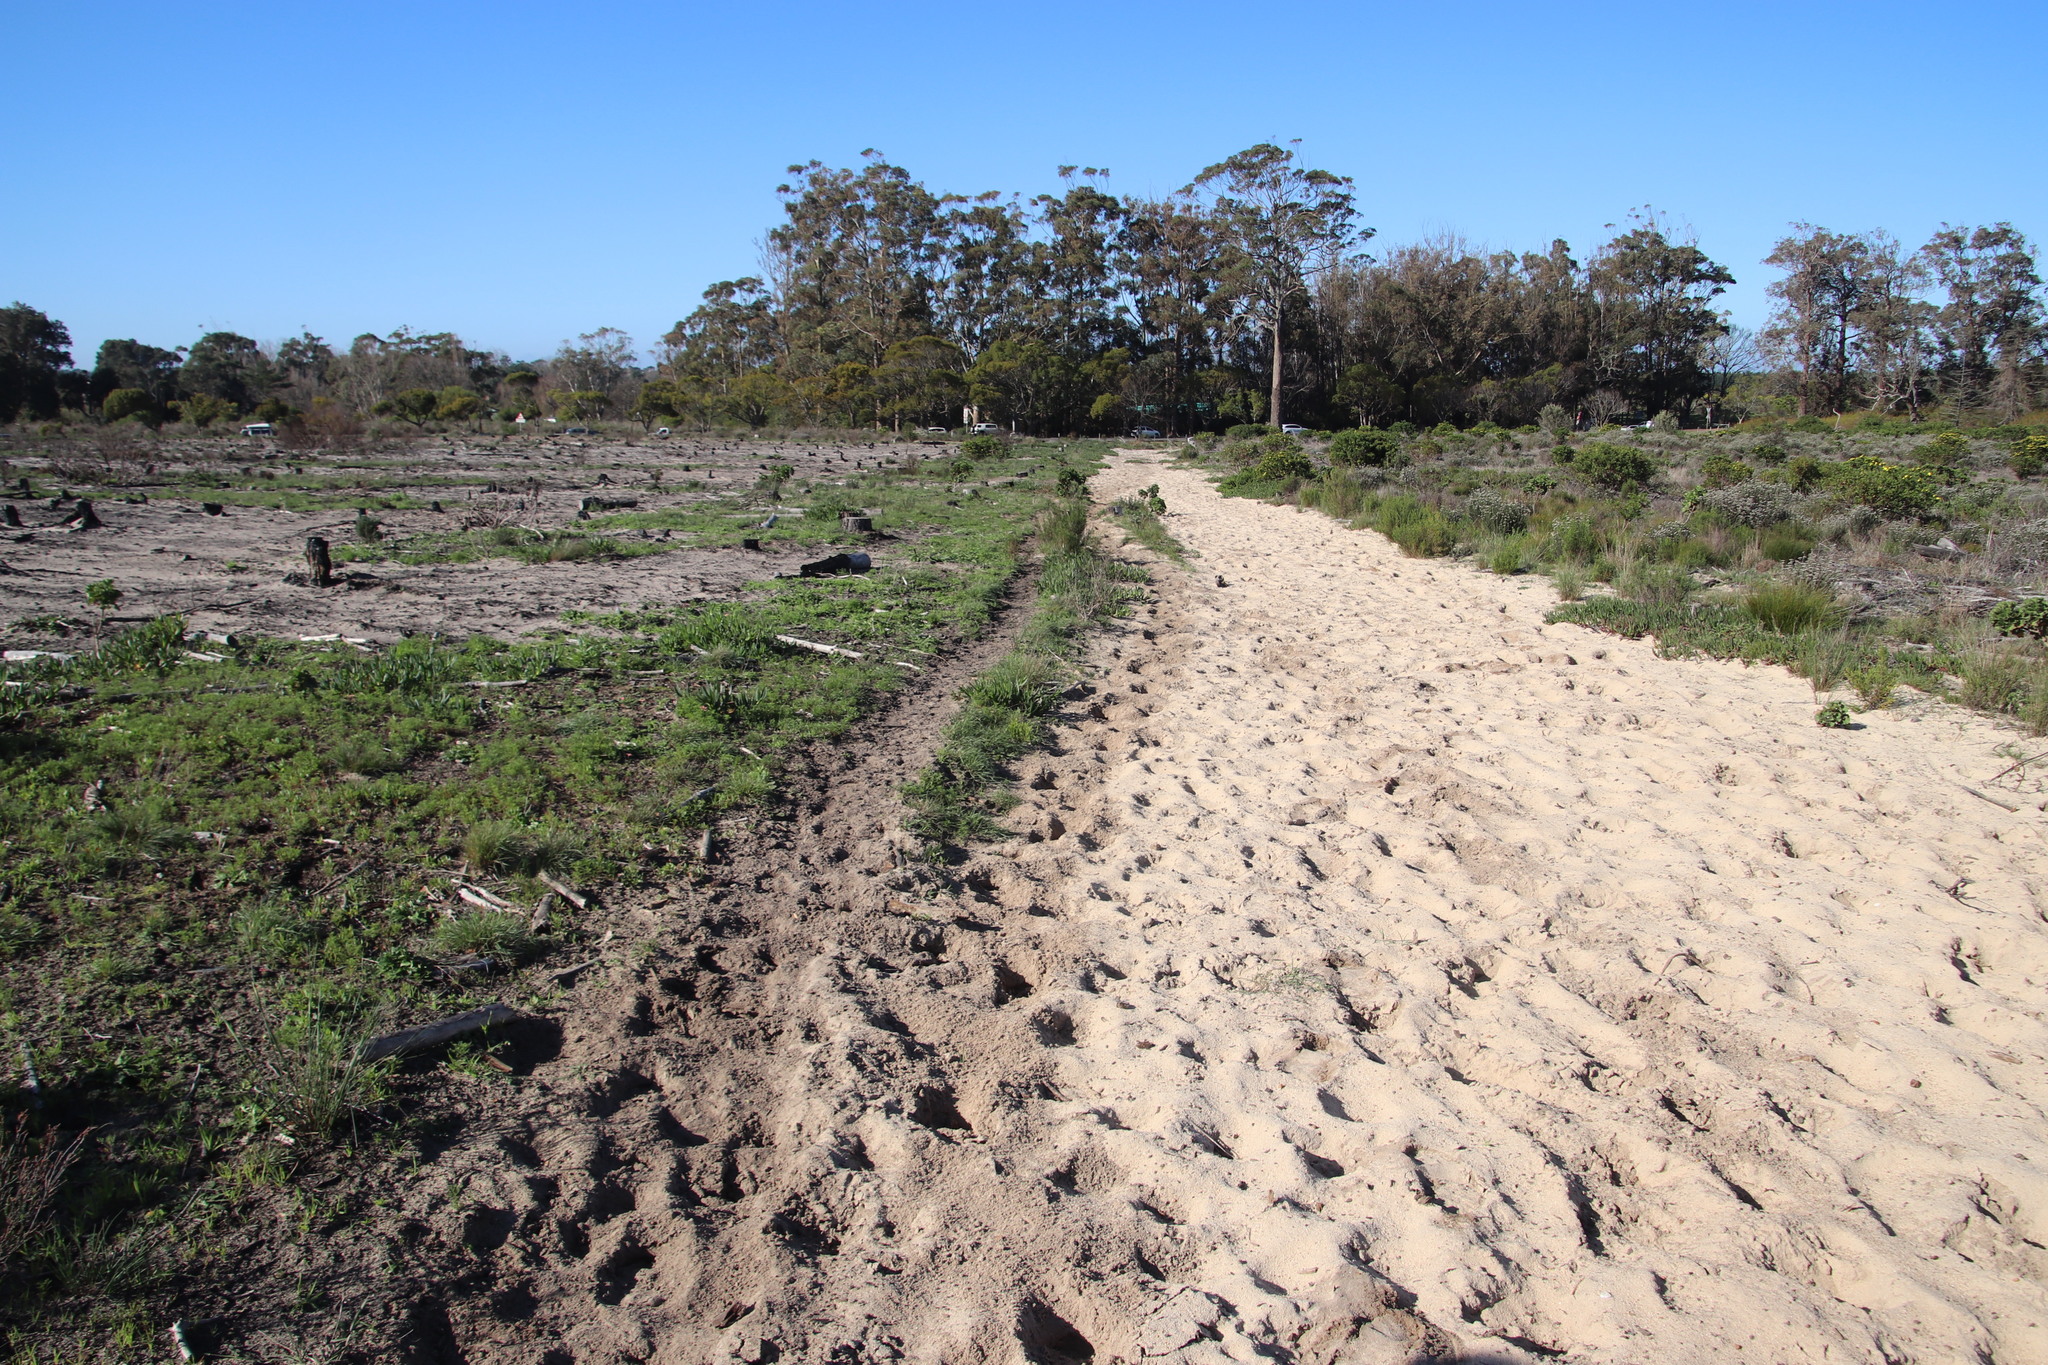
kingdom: Animalia
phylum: Chordata
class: Mammalia
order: Perissodactyla
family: Equidae
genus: Equus
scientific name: Equus caballus
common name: Horse
